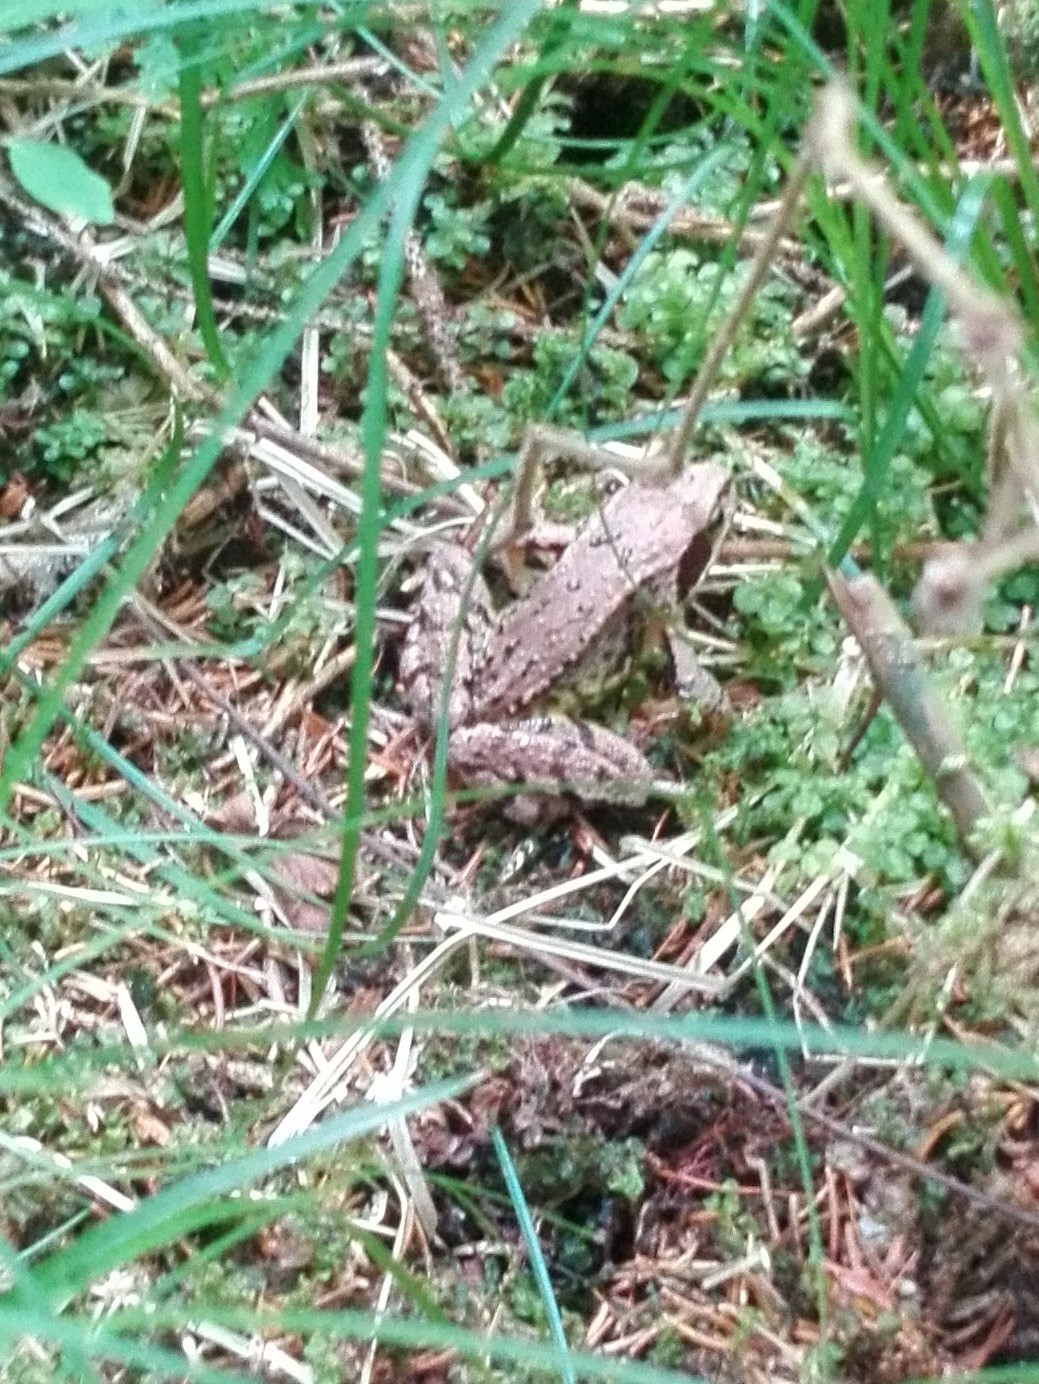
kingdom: Animalia
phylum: Chordata
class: Amphibia
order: Anura
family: Ranidae
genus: Rana
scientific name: Rana temporaria
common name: Common frog
